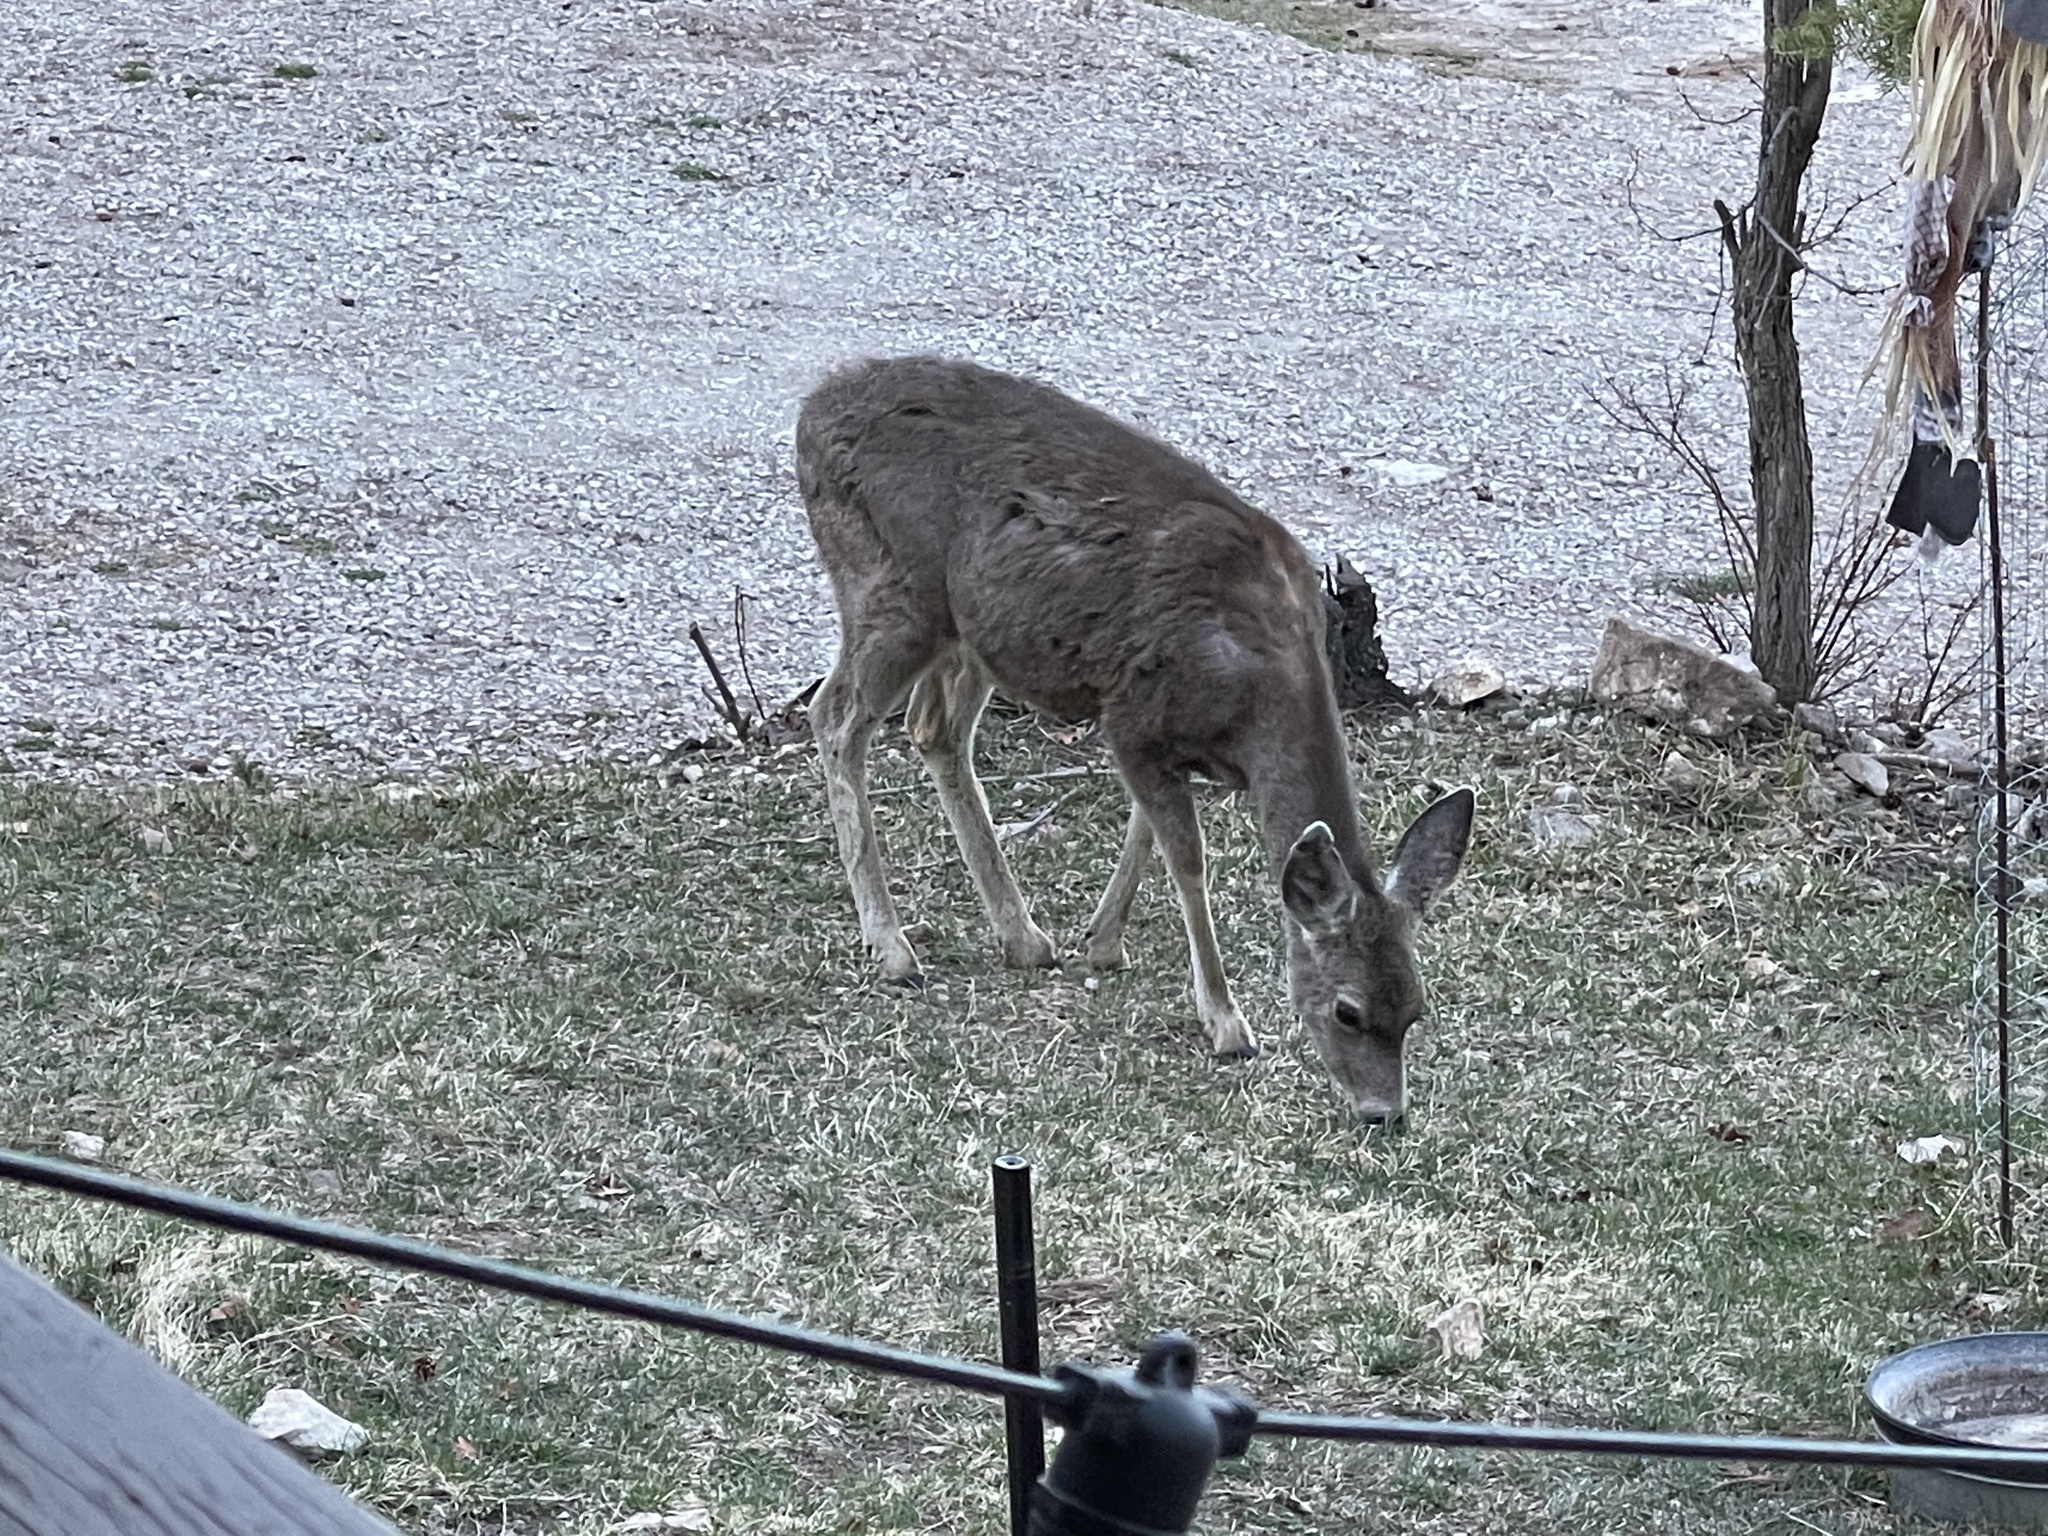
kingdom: Animalia
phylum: Chordata
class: Mammalia
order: Artiodactyla
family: Cervidae
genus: Odocoileus
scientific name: Odocoileus hemionus
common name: Mule deer
